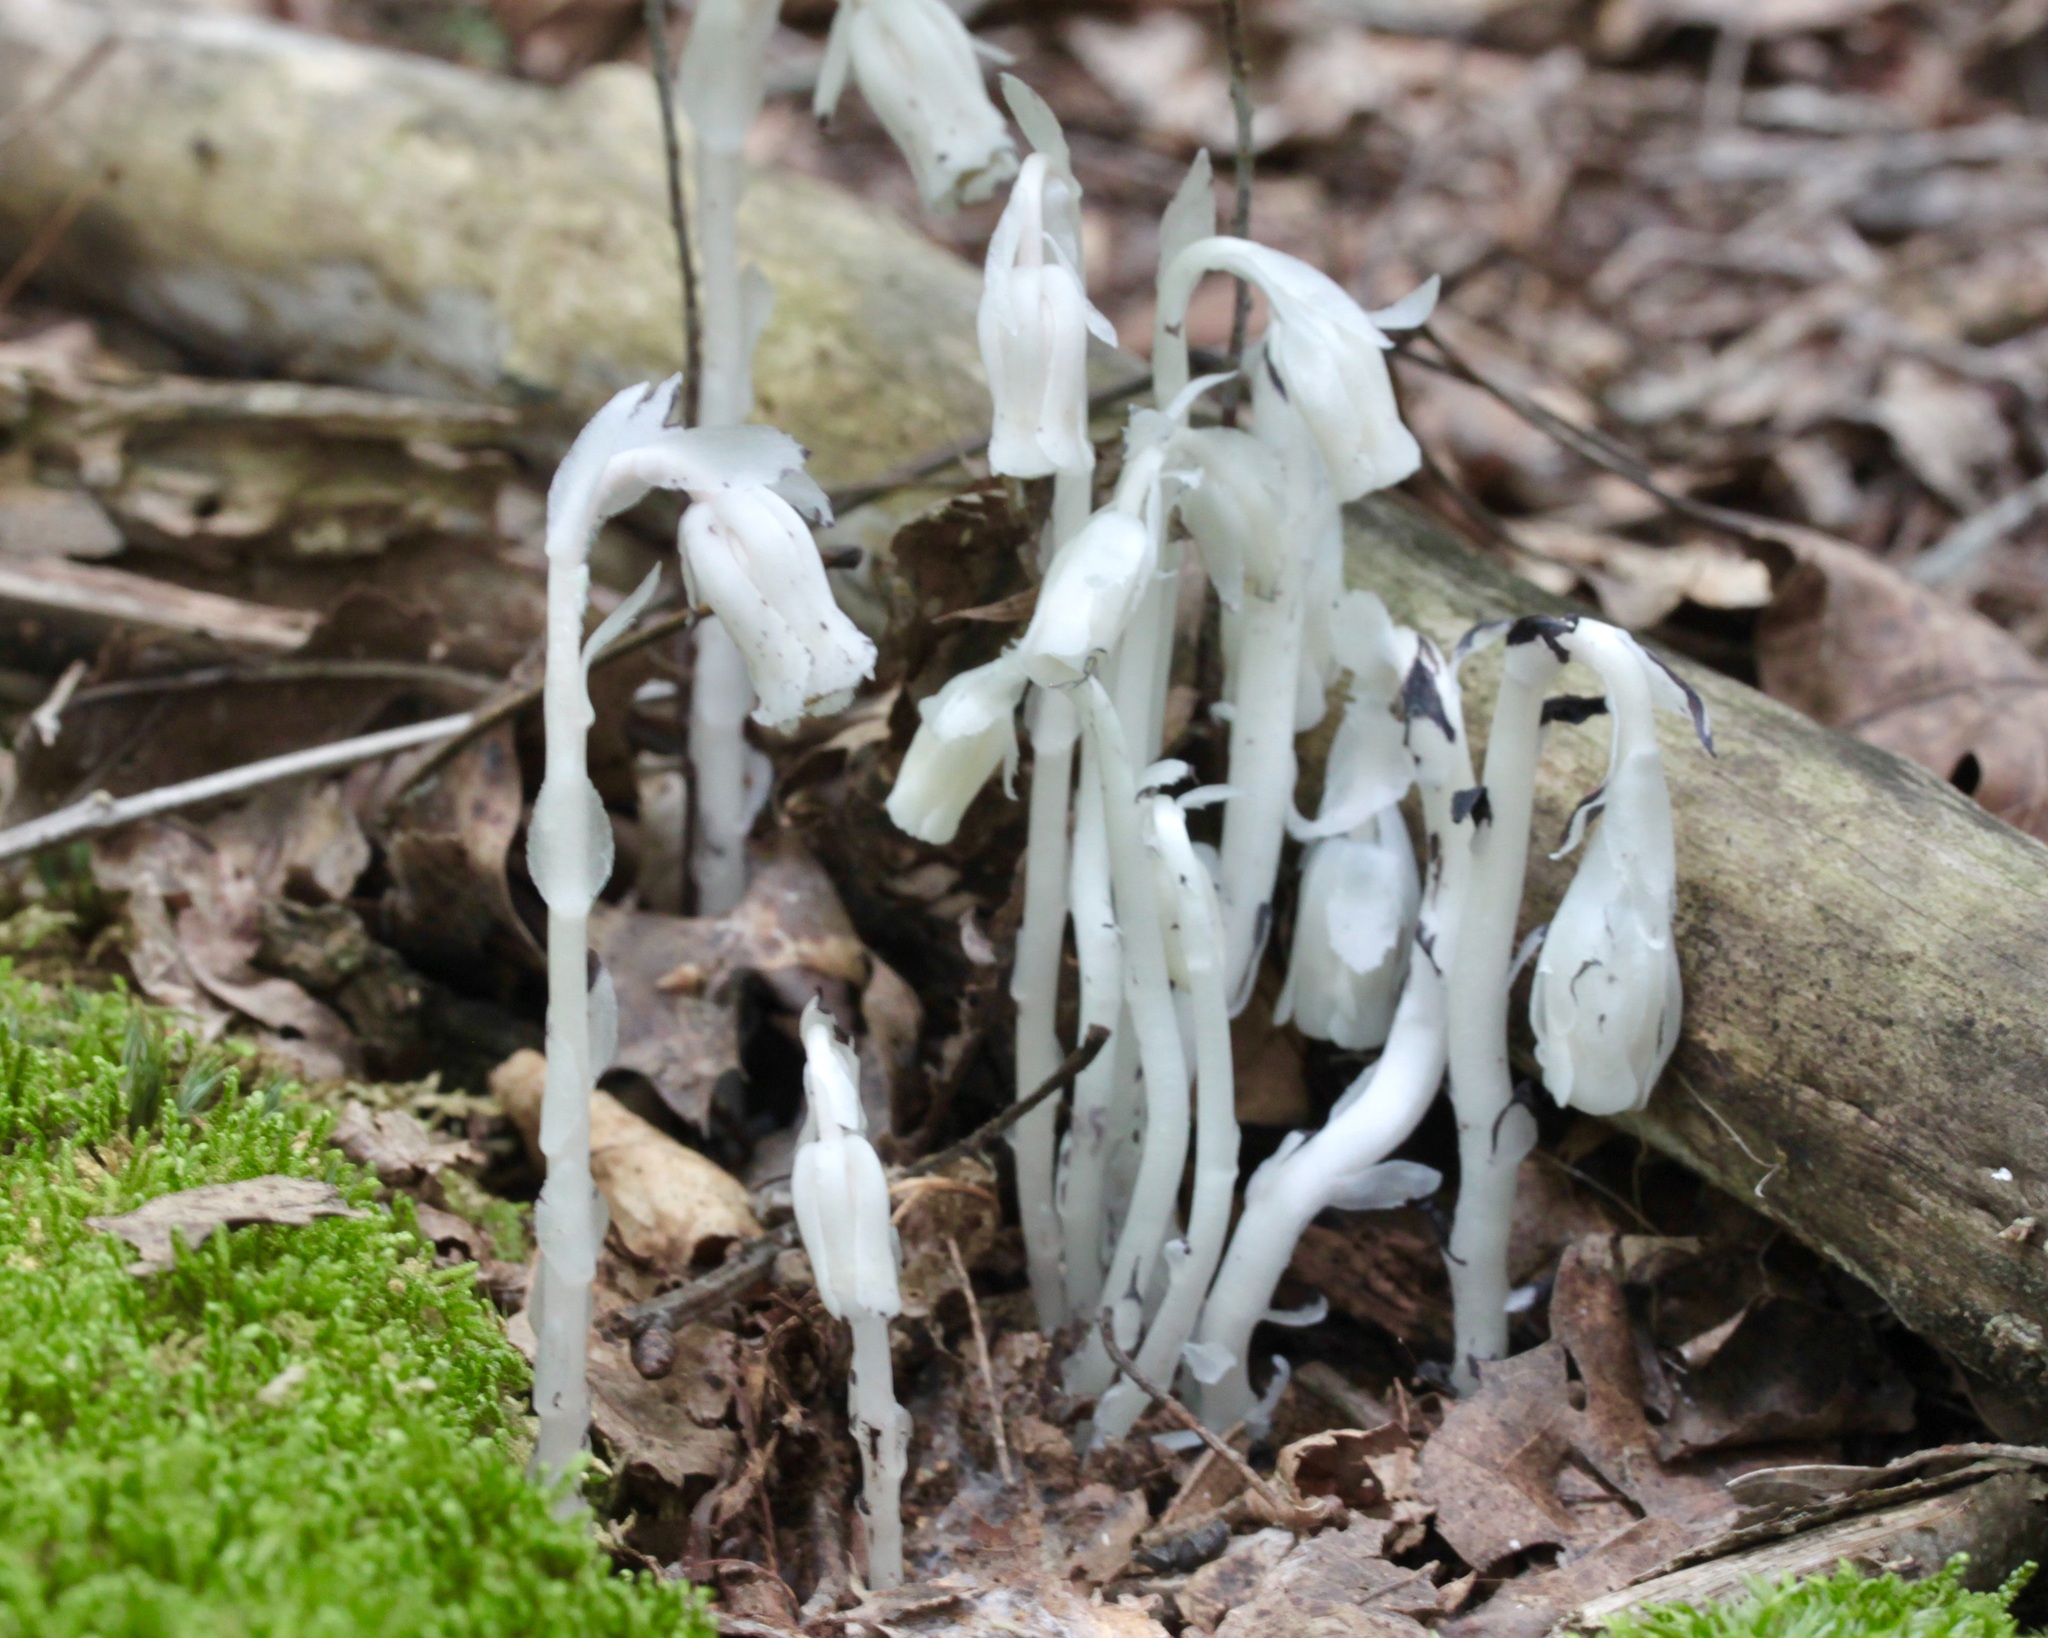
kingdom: Plantae
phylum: Tracheophyta
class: Magnoliopsida
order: Ericales
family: Ericaceae
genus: Monotropa
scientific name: Monotropa uniflora
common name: Convulsion root
